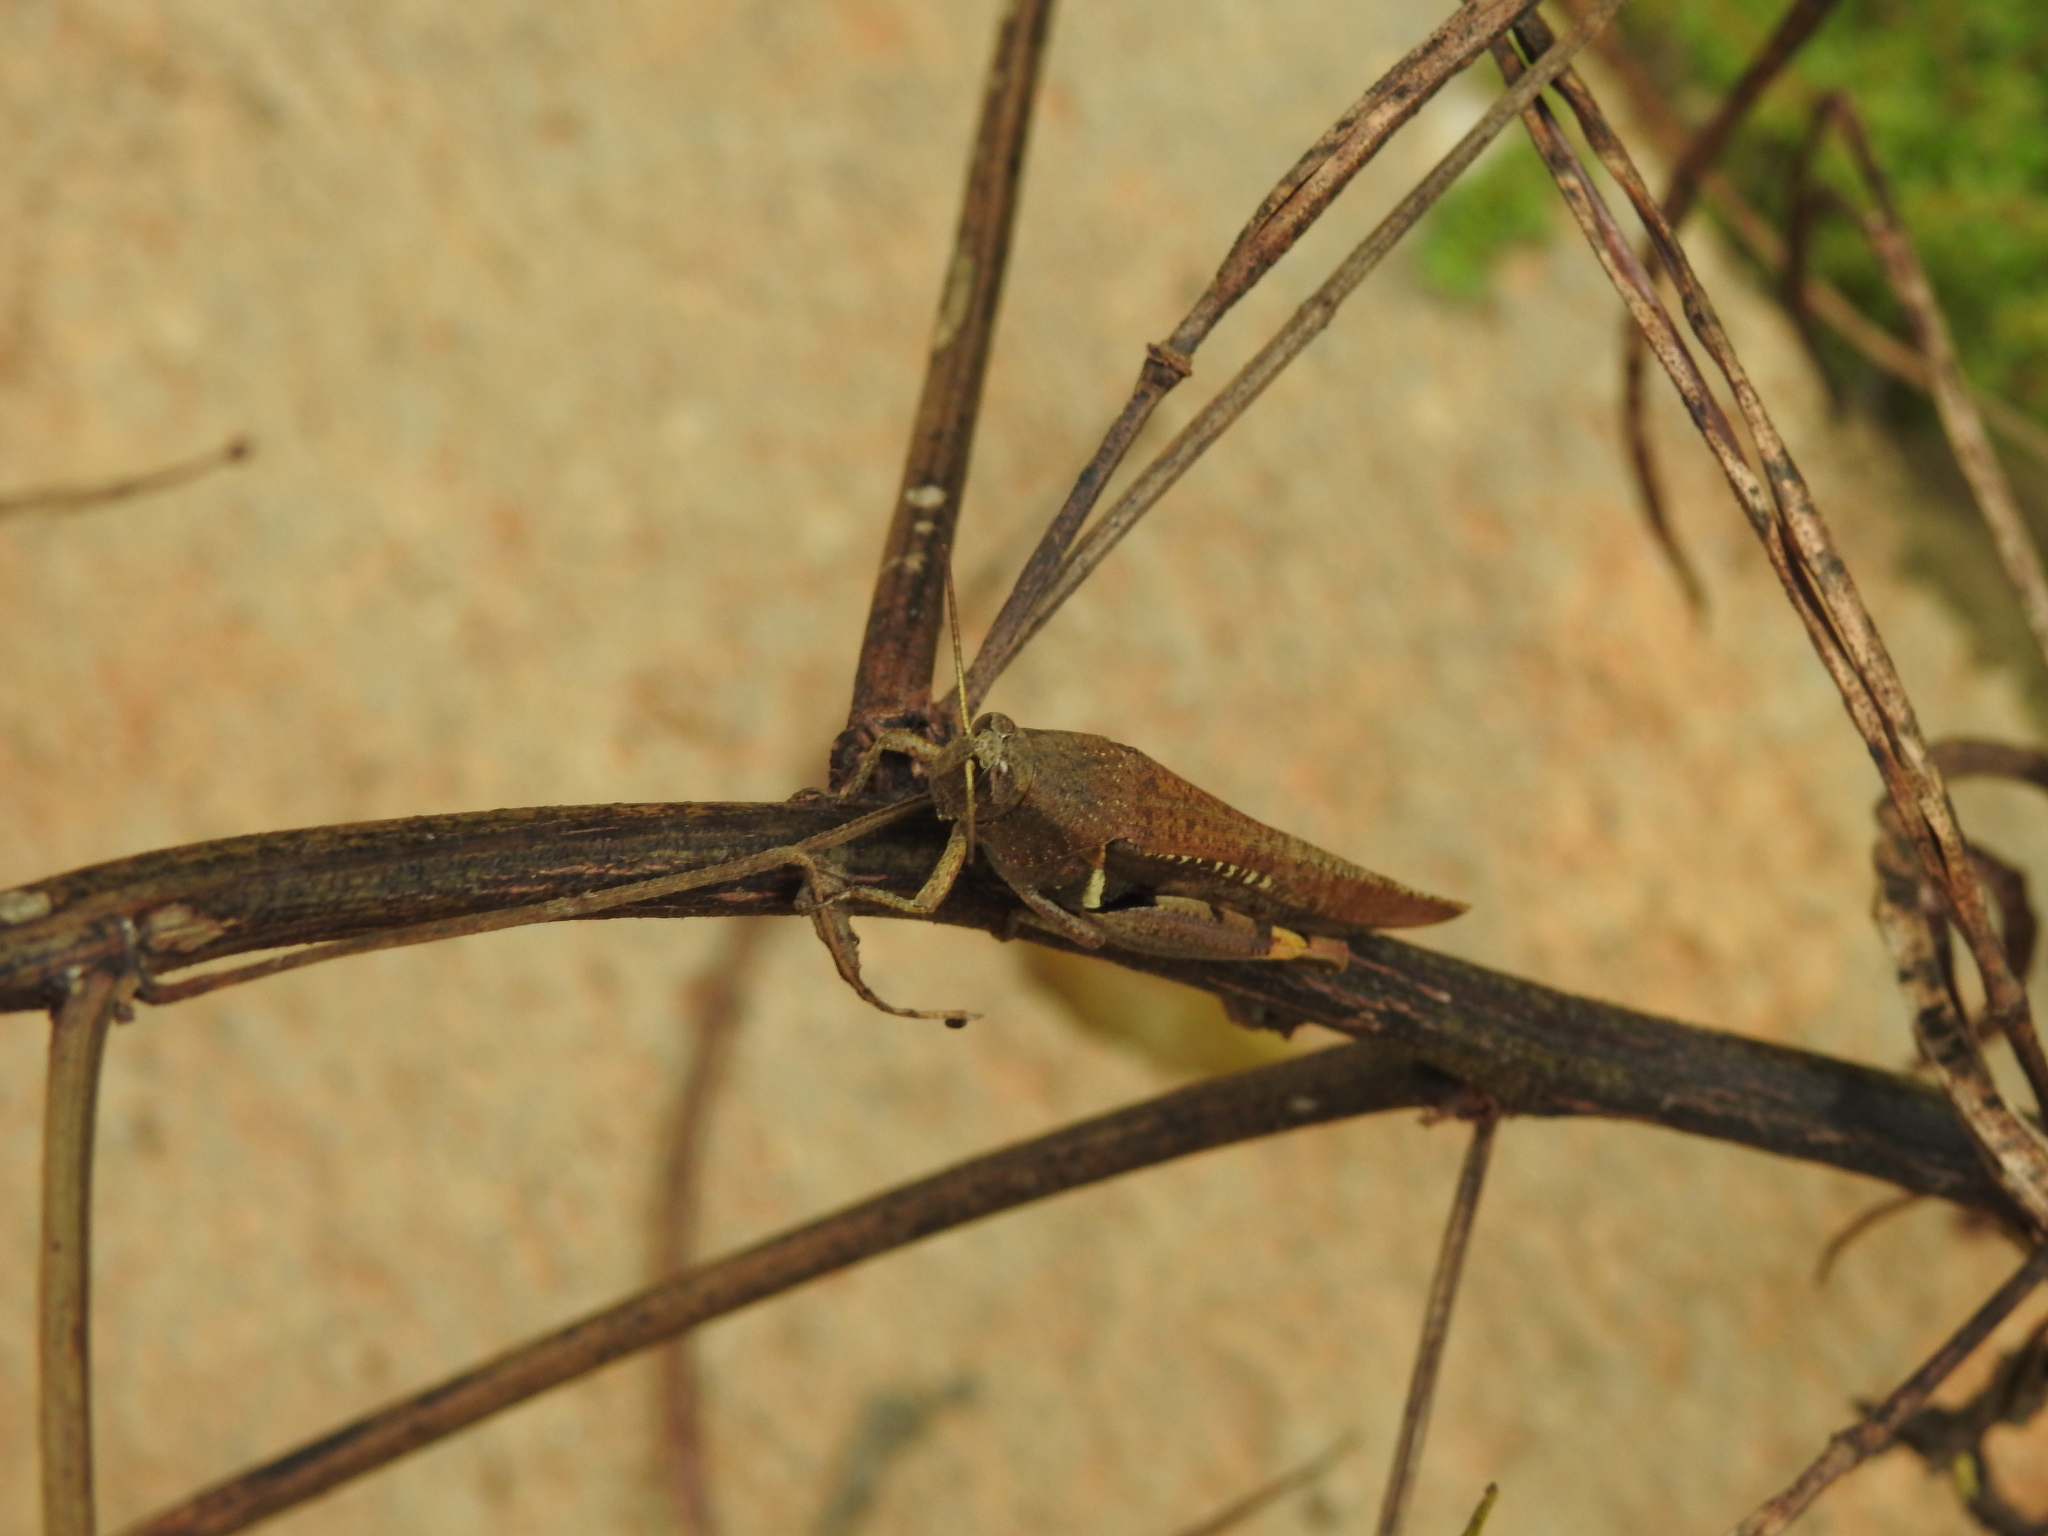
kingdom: Animalia
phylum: Arthropoda
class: Insecta
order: Orthoptera
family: Acrididae
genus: Diabolocatantops
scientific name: Diabolocatantops innotabilis
